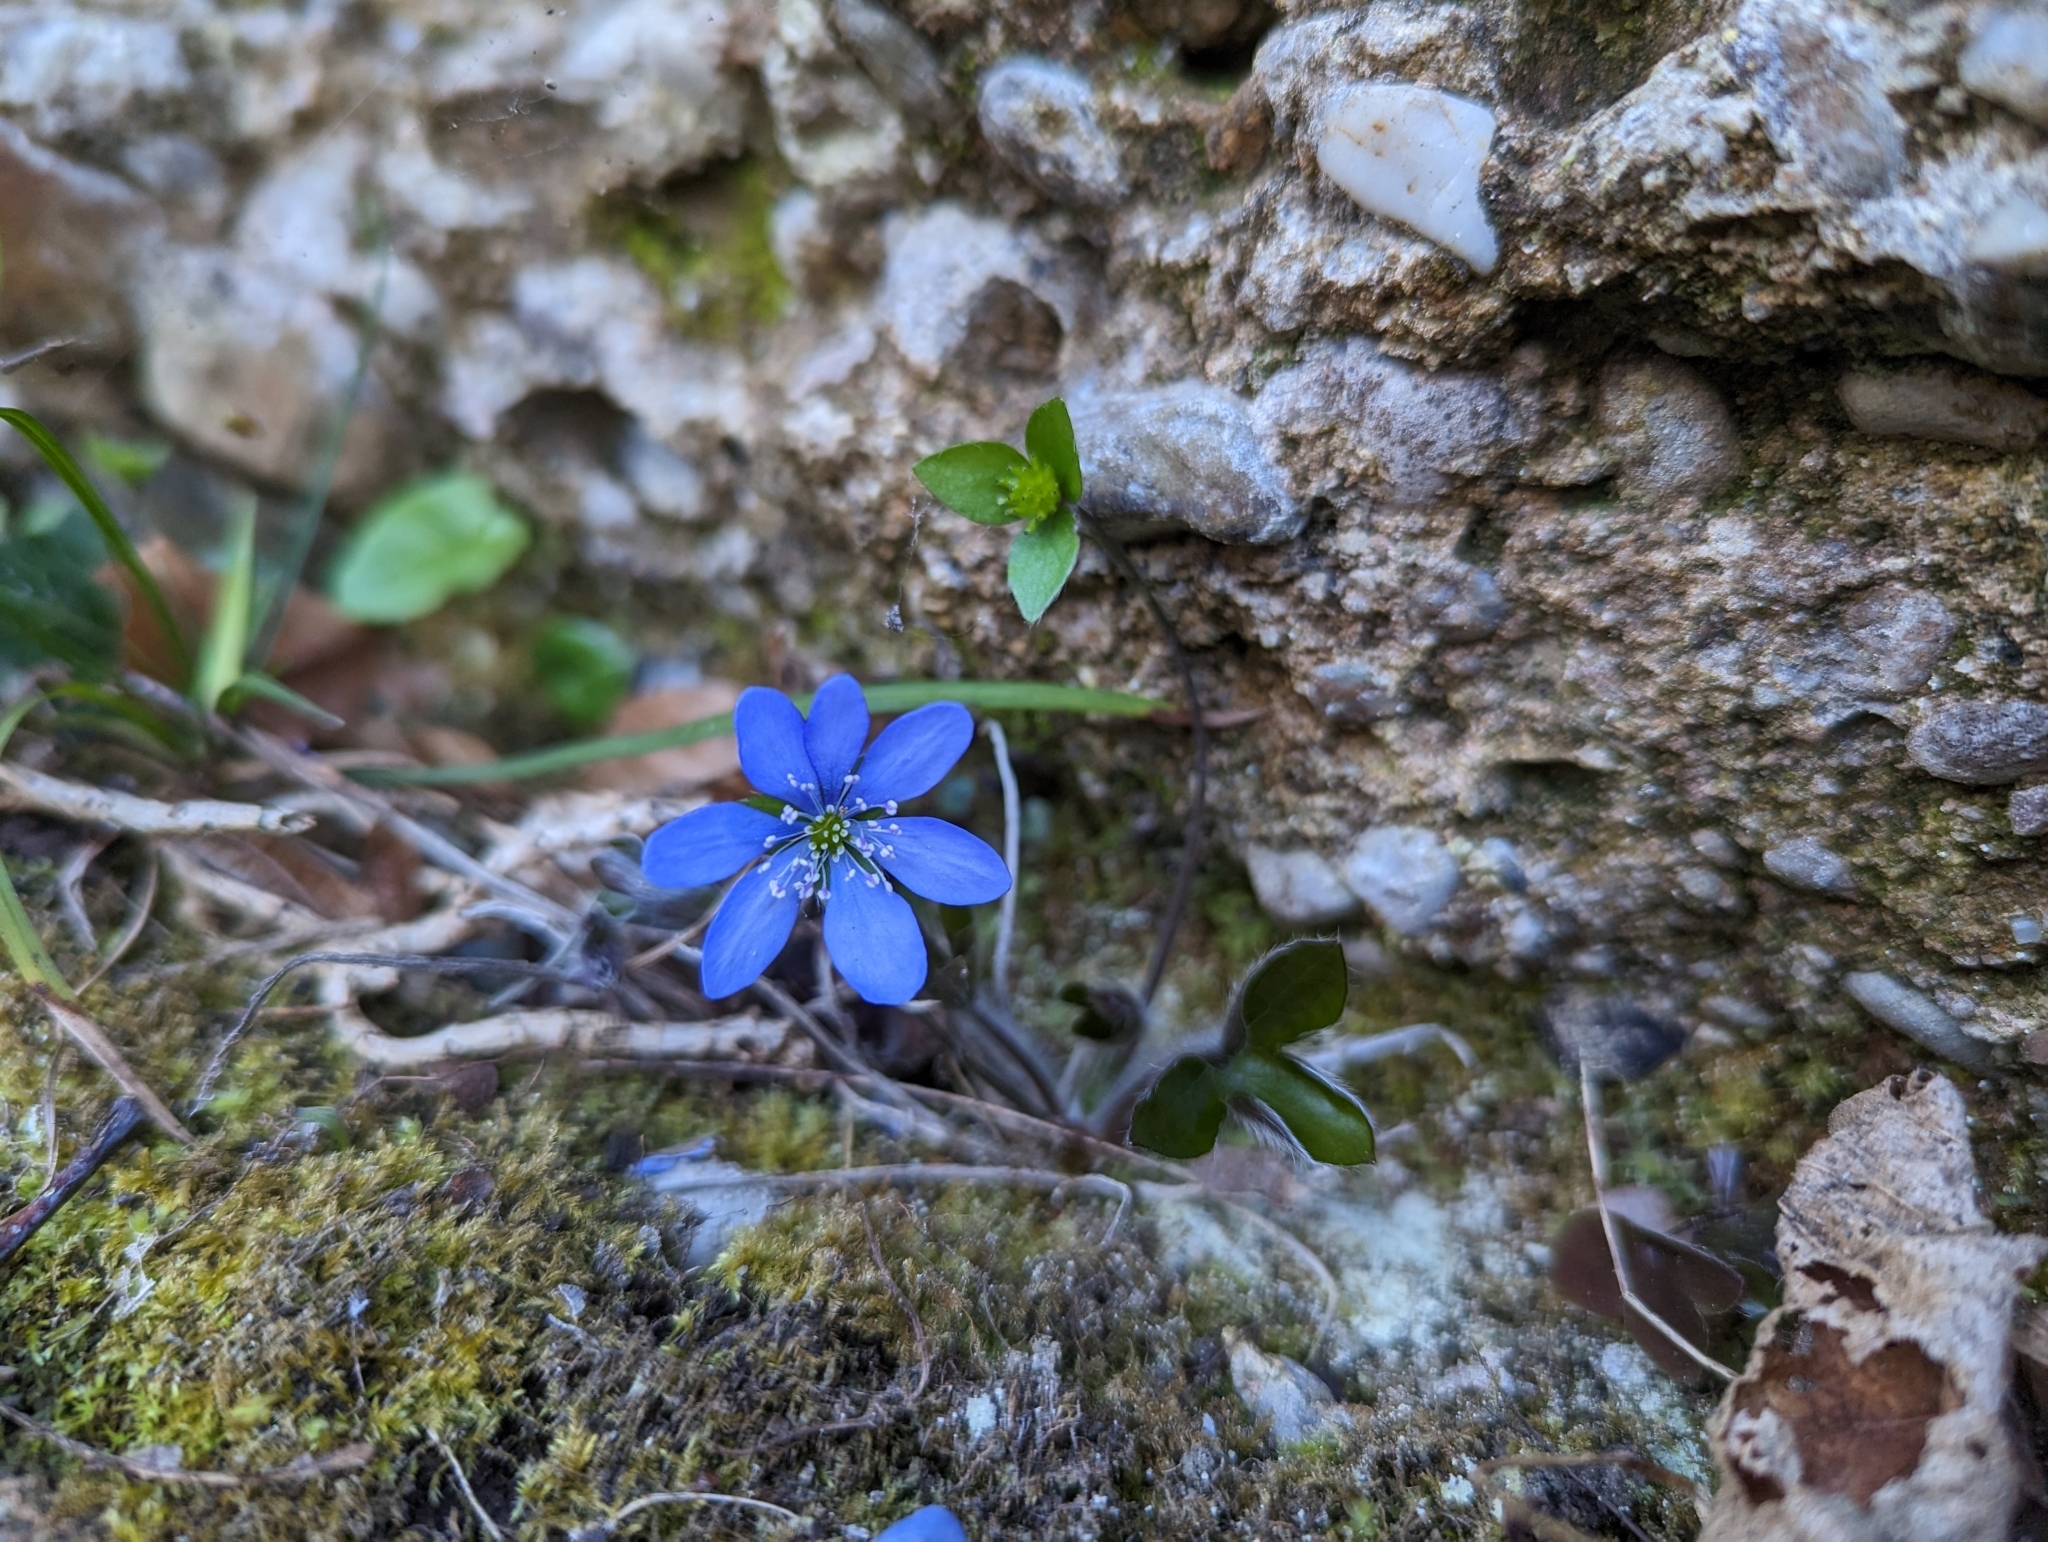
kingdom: Plantae
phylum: Tracheophyta
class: Magnoliopsida
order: Ranunculales
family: Ranunculaceae
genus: Hepatica
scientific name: Hepatica nobilis
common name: Liverleaf
